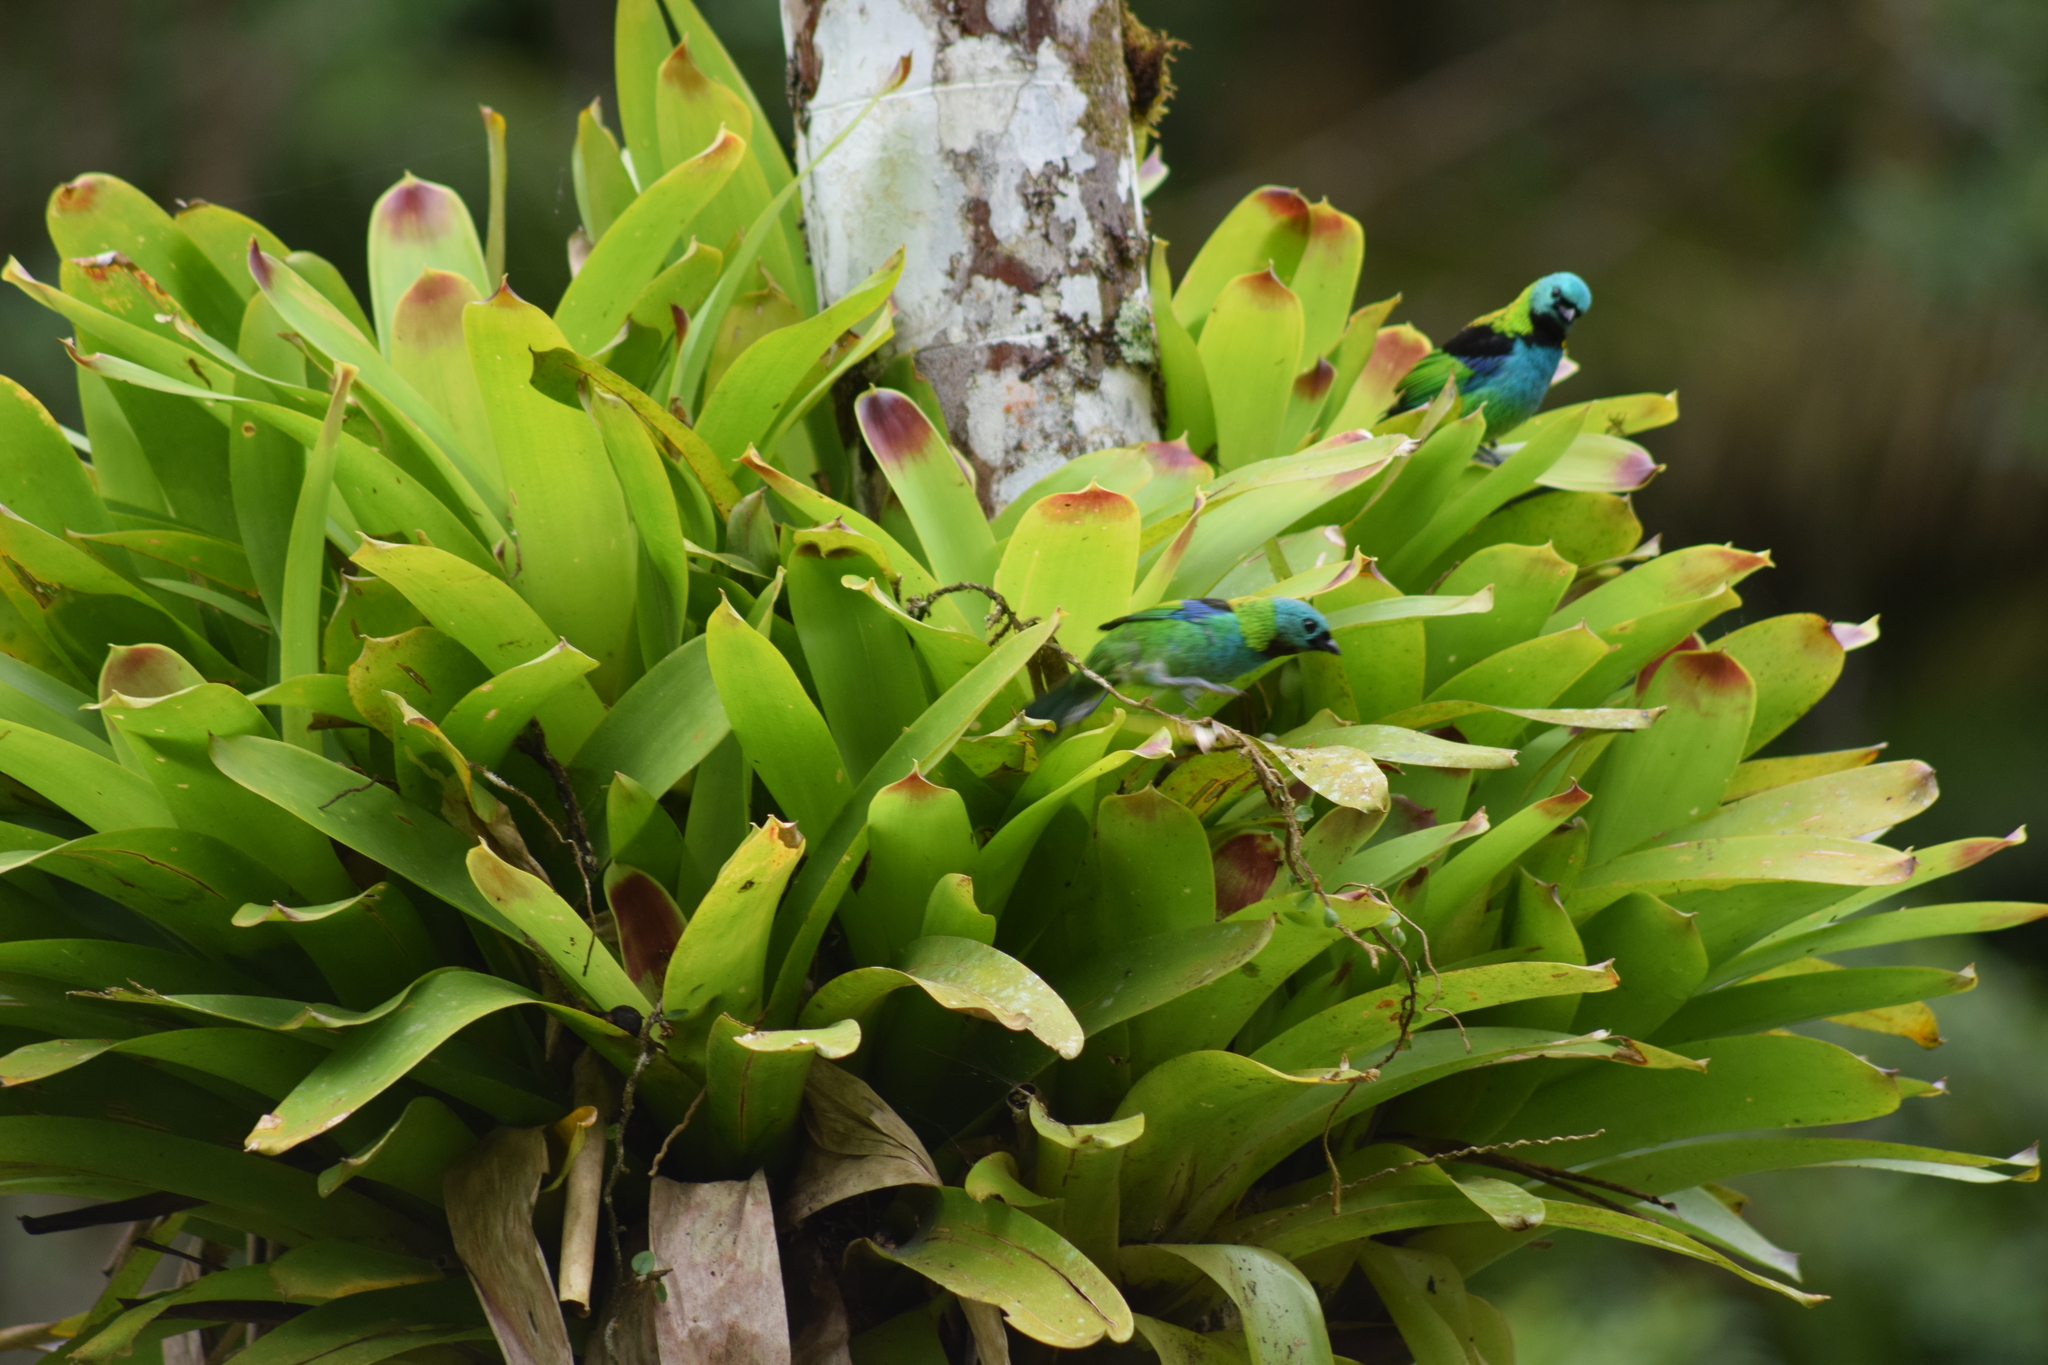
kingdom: Plantae
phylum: Tracheophyta
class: Liliopsida
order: Poales
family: Bromeliaceae
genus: Vriesea
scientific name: Vriesea philippocoburgi
